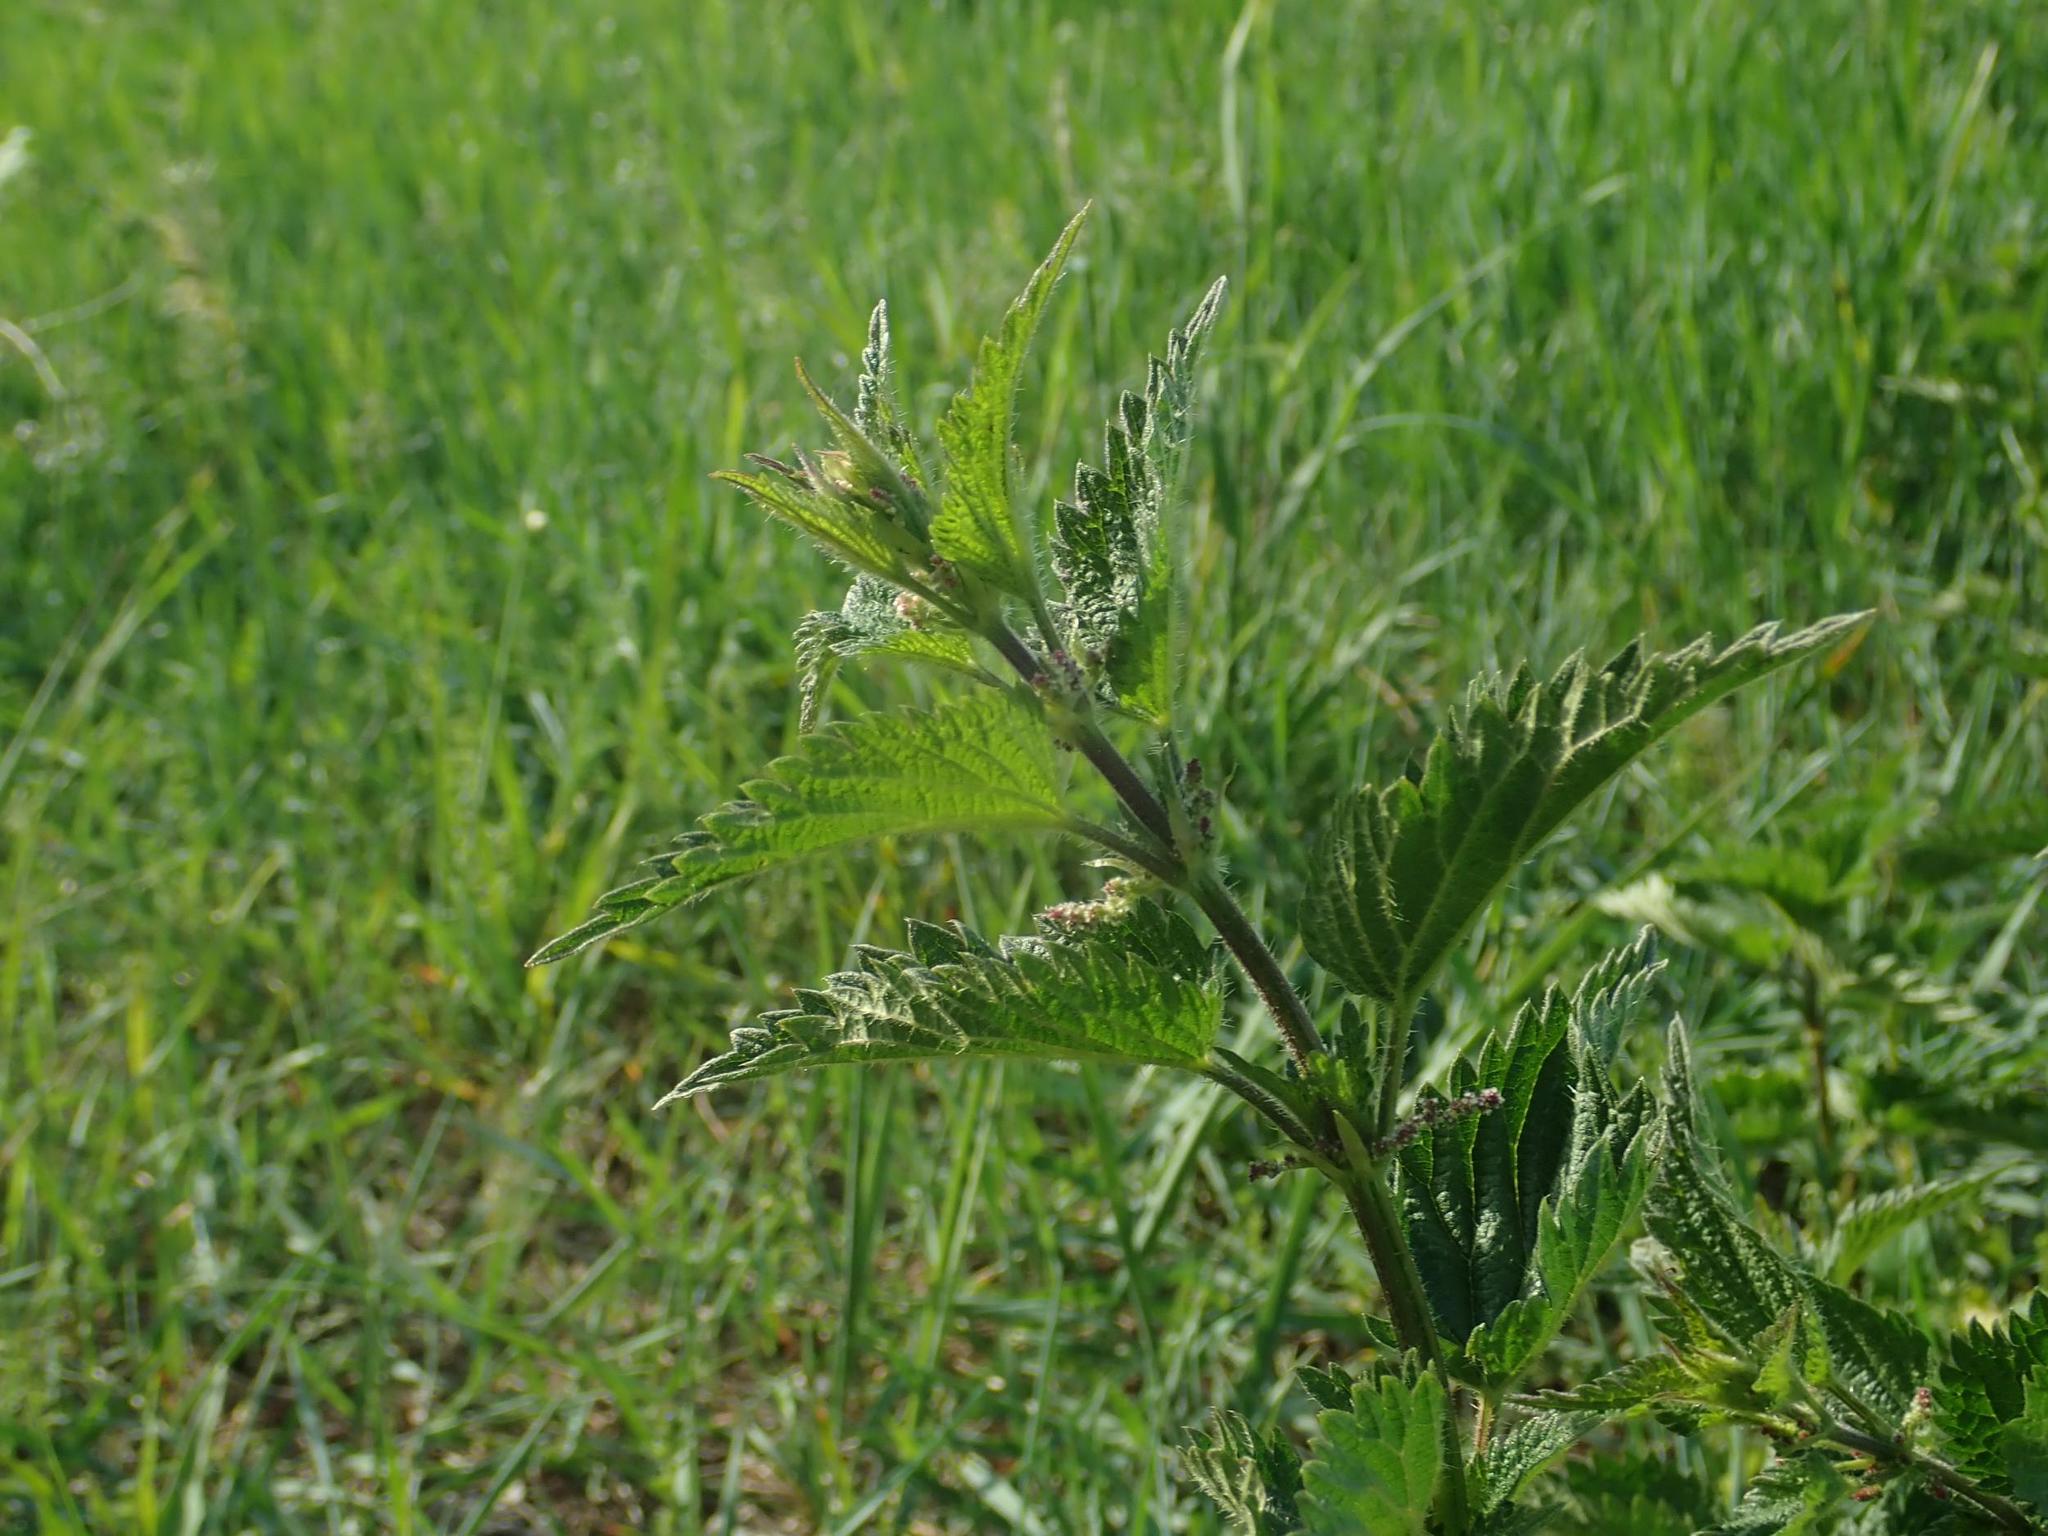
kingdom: Plantae
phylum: Tracheophyta
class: Magnoliopsida
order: Rosales
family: Urticaceae
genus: Urtica
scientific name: Urtica dioica
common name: Common nettle
